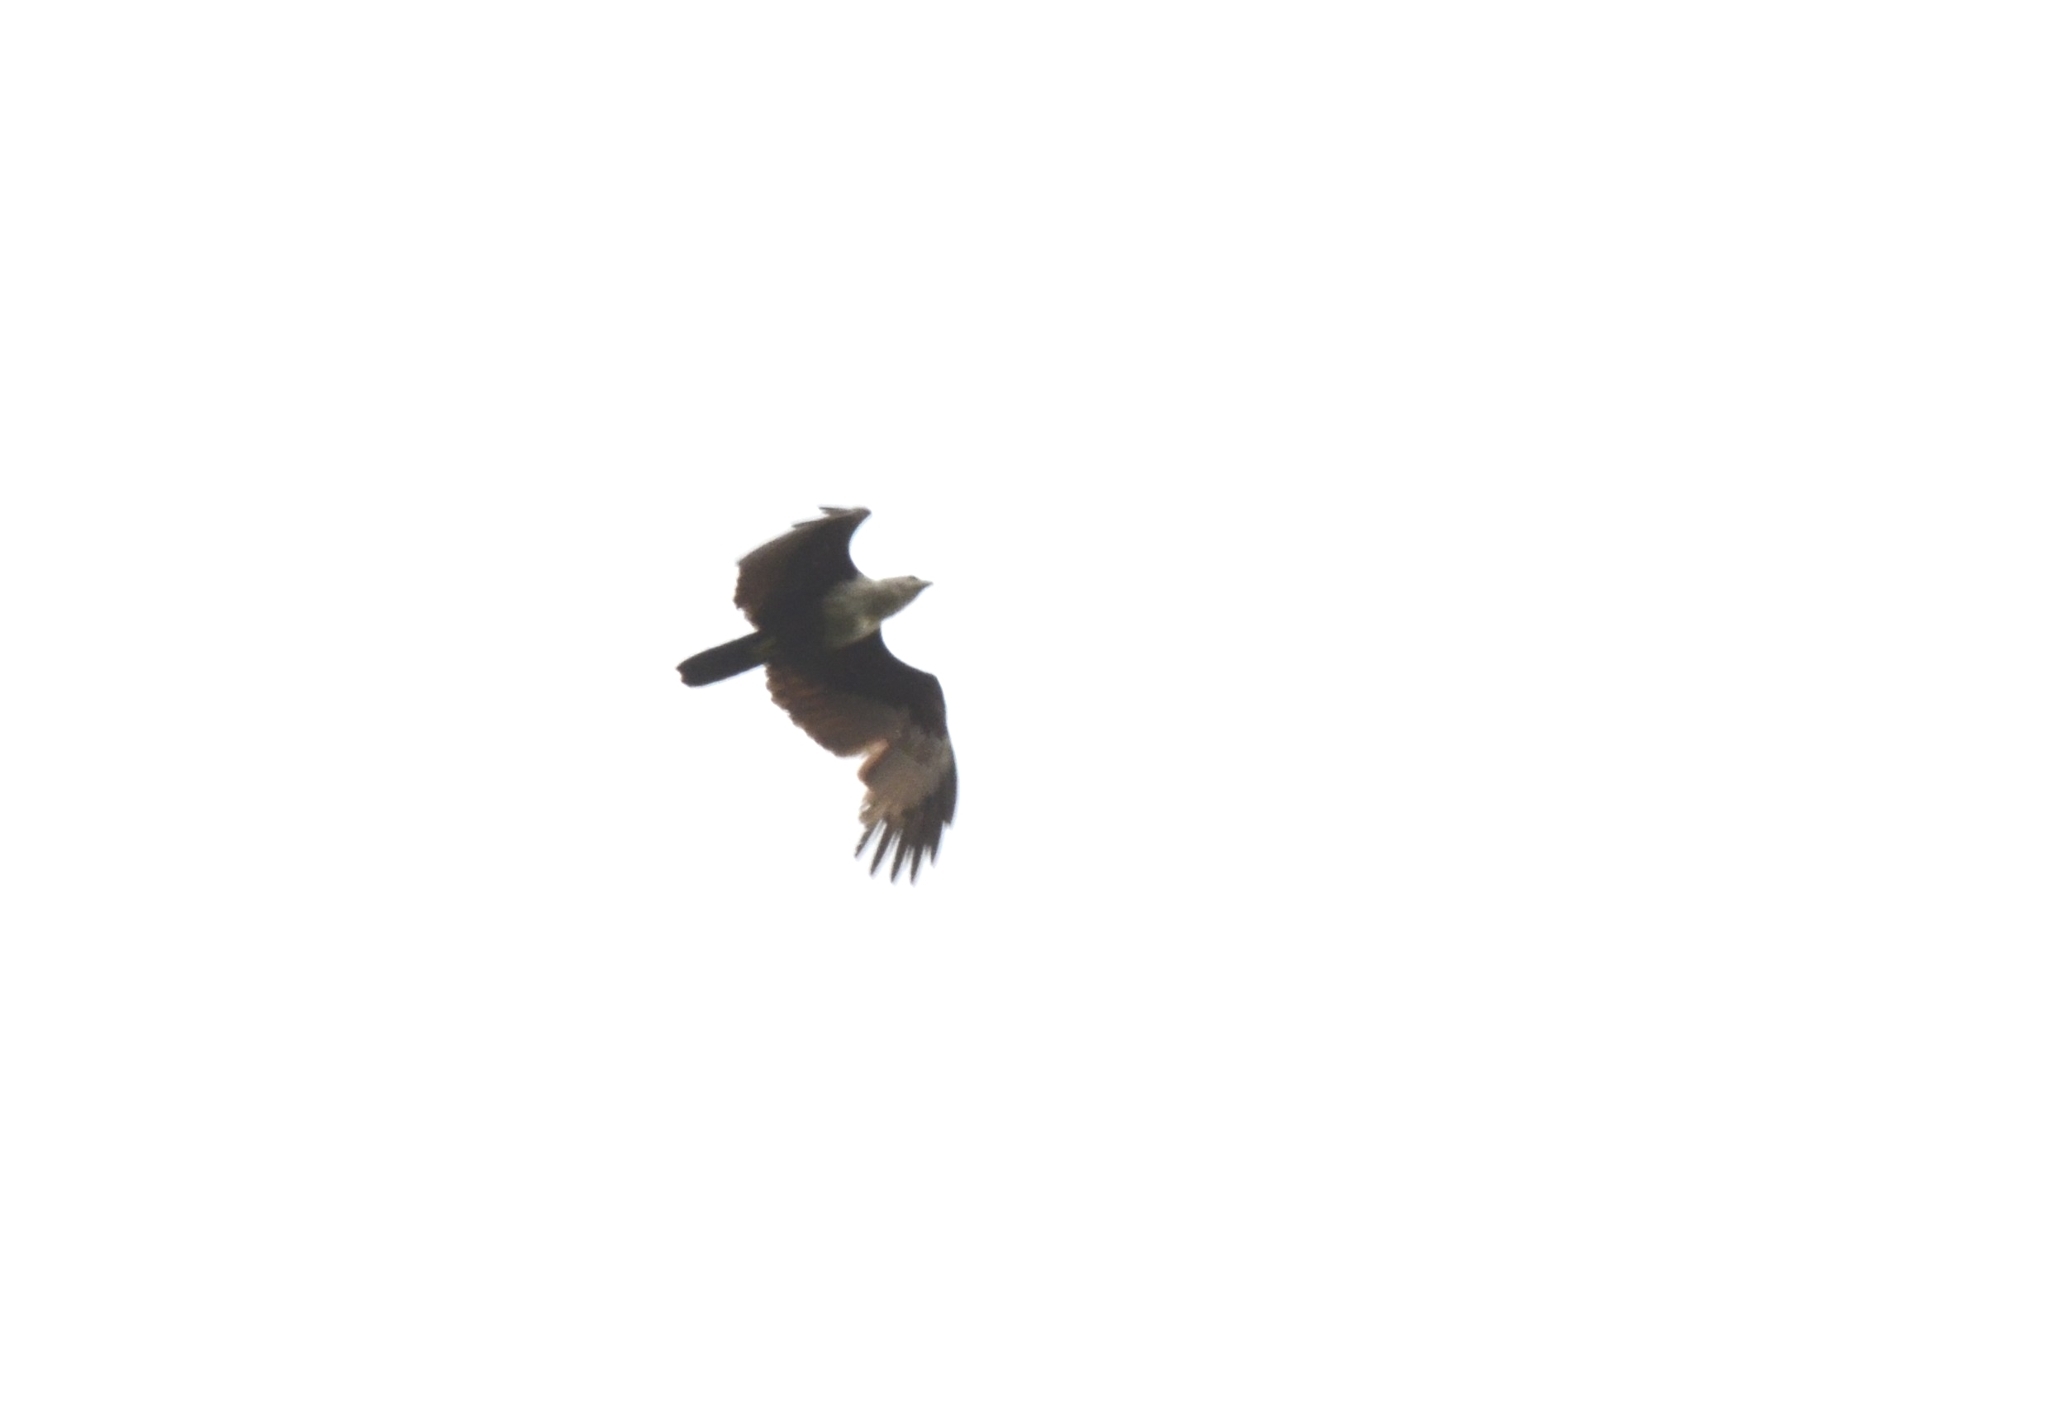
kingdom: Animalia
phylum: Chordata
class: Aves
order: Accipitriformes
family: Accipitridae
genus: Haliastur
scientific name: Haliastur indus
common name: Brahminy kite
